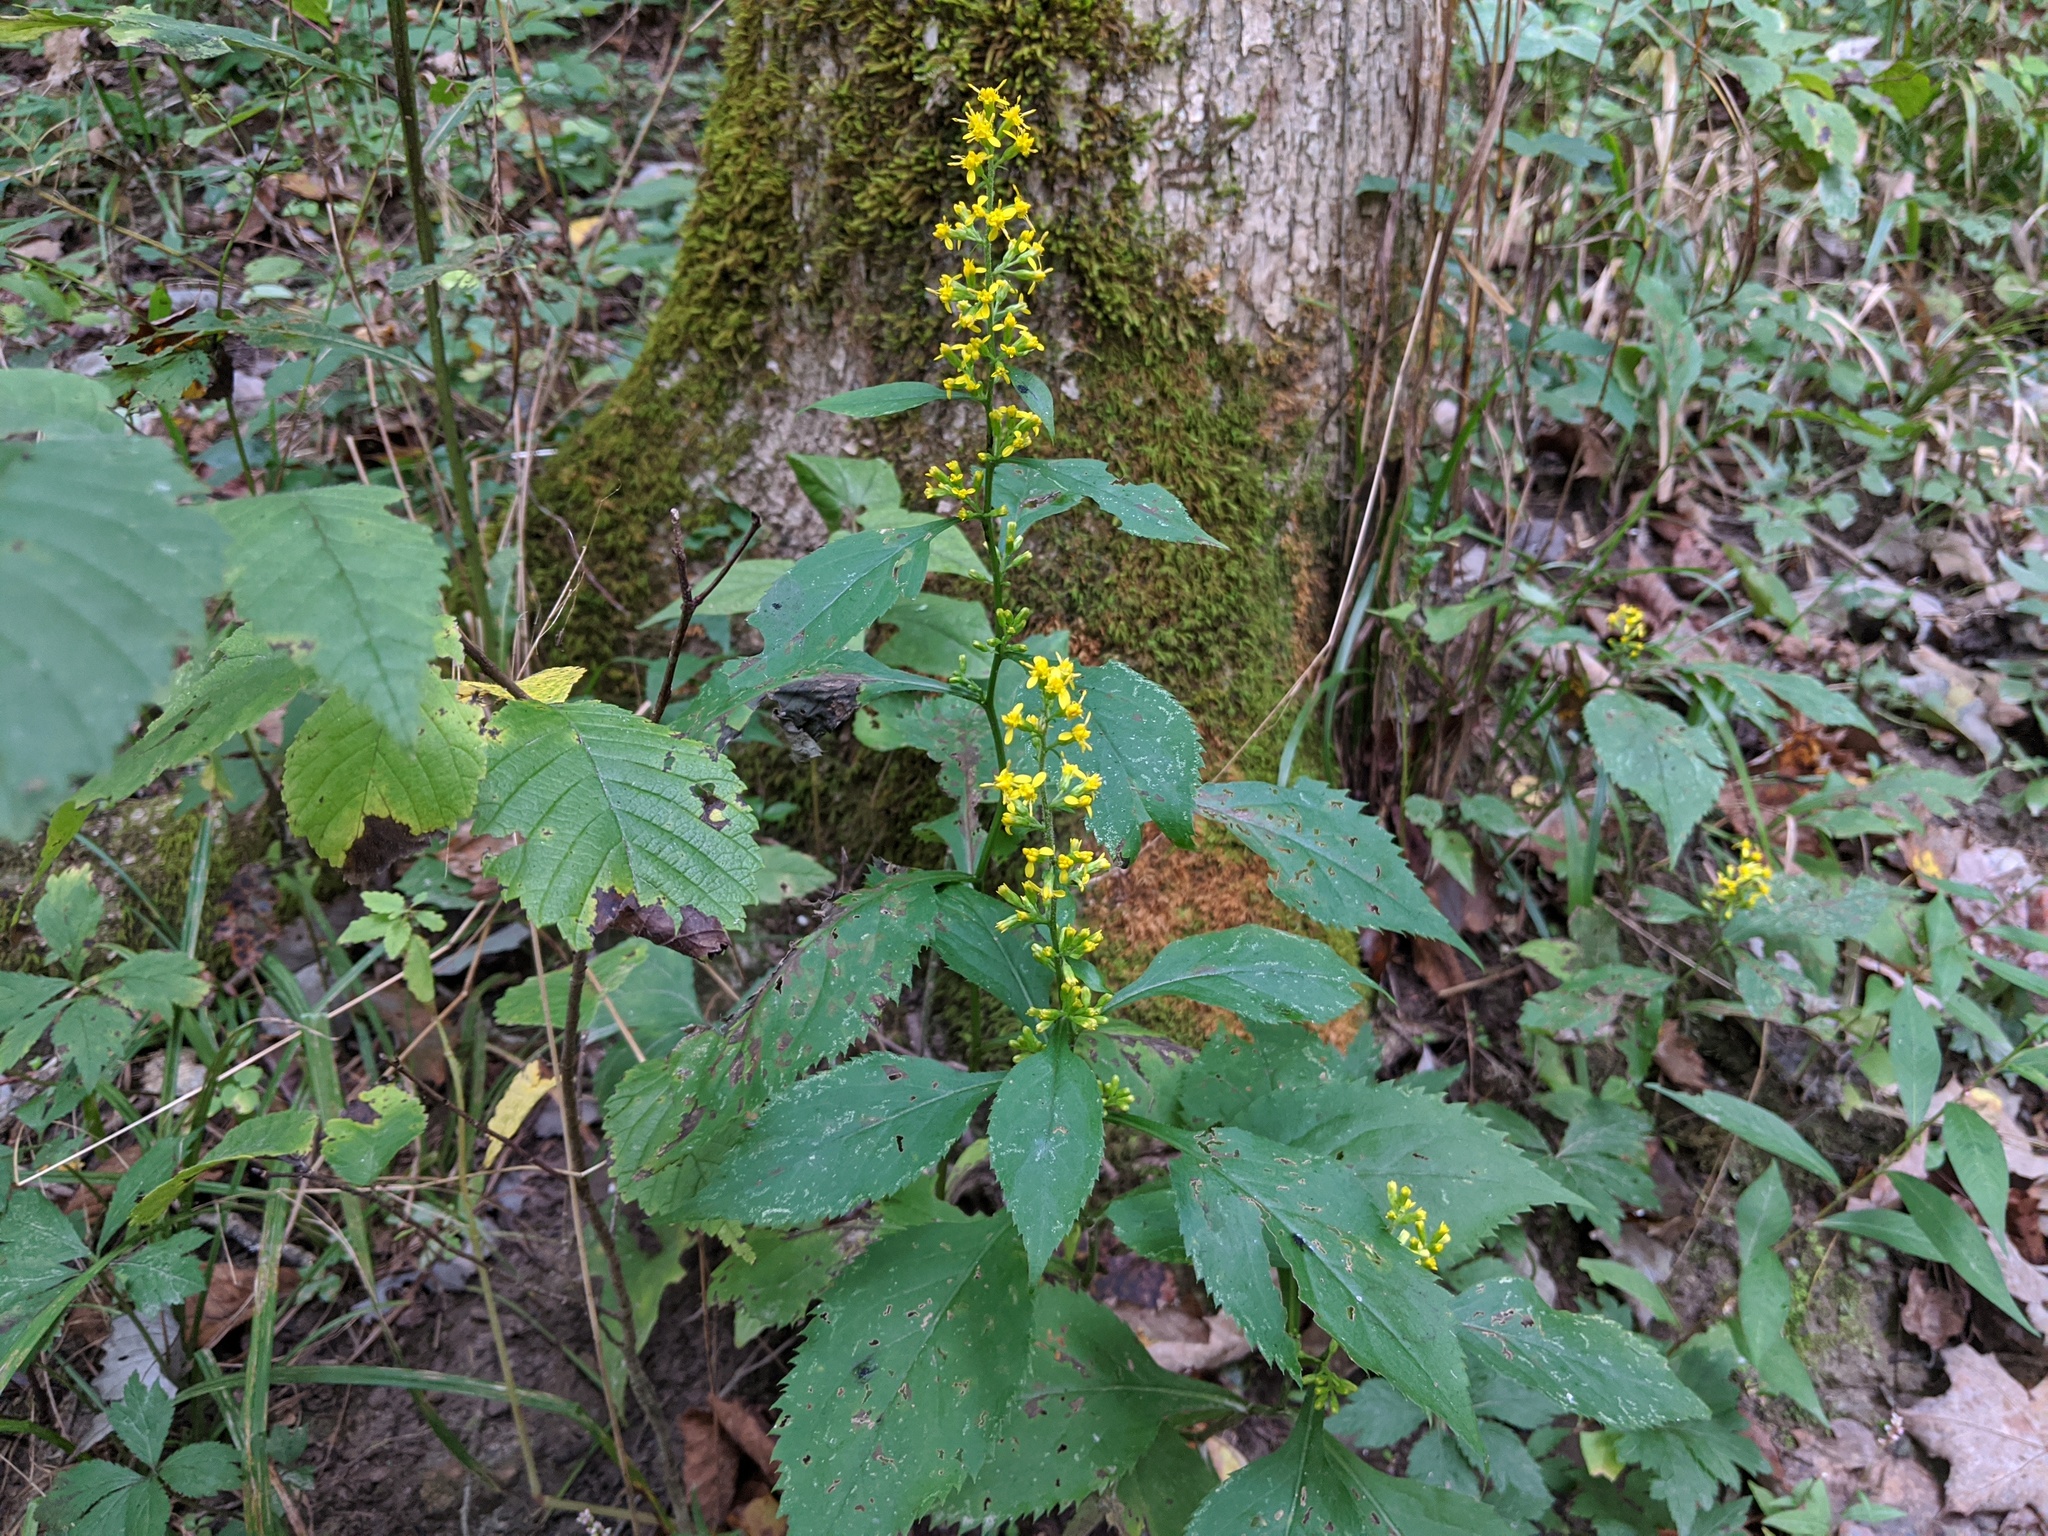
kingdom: Plantae
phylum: Tracheophyta
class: Magnoliopsida
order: Asterales
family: Asteraceae
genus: Solidago
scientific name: Solidago flexicaulis
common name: Zig-zag goldenrod
